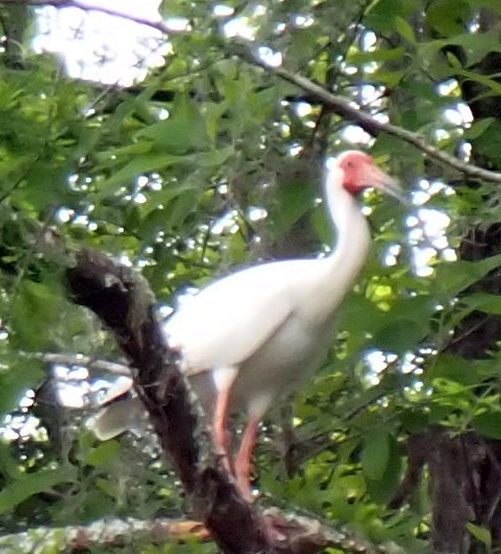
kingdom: Animalia
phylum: Chordata
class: Aves
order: Pelecaniformes
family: Threskiornithidae
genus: Eudocimus
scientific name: Eudocimus albus
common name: White ibis
